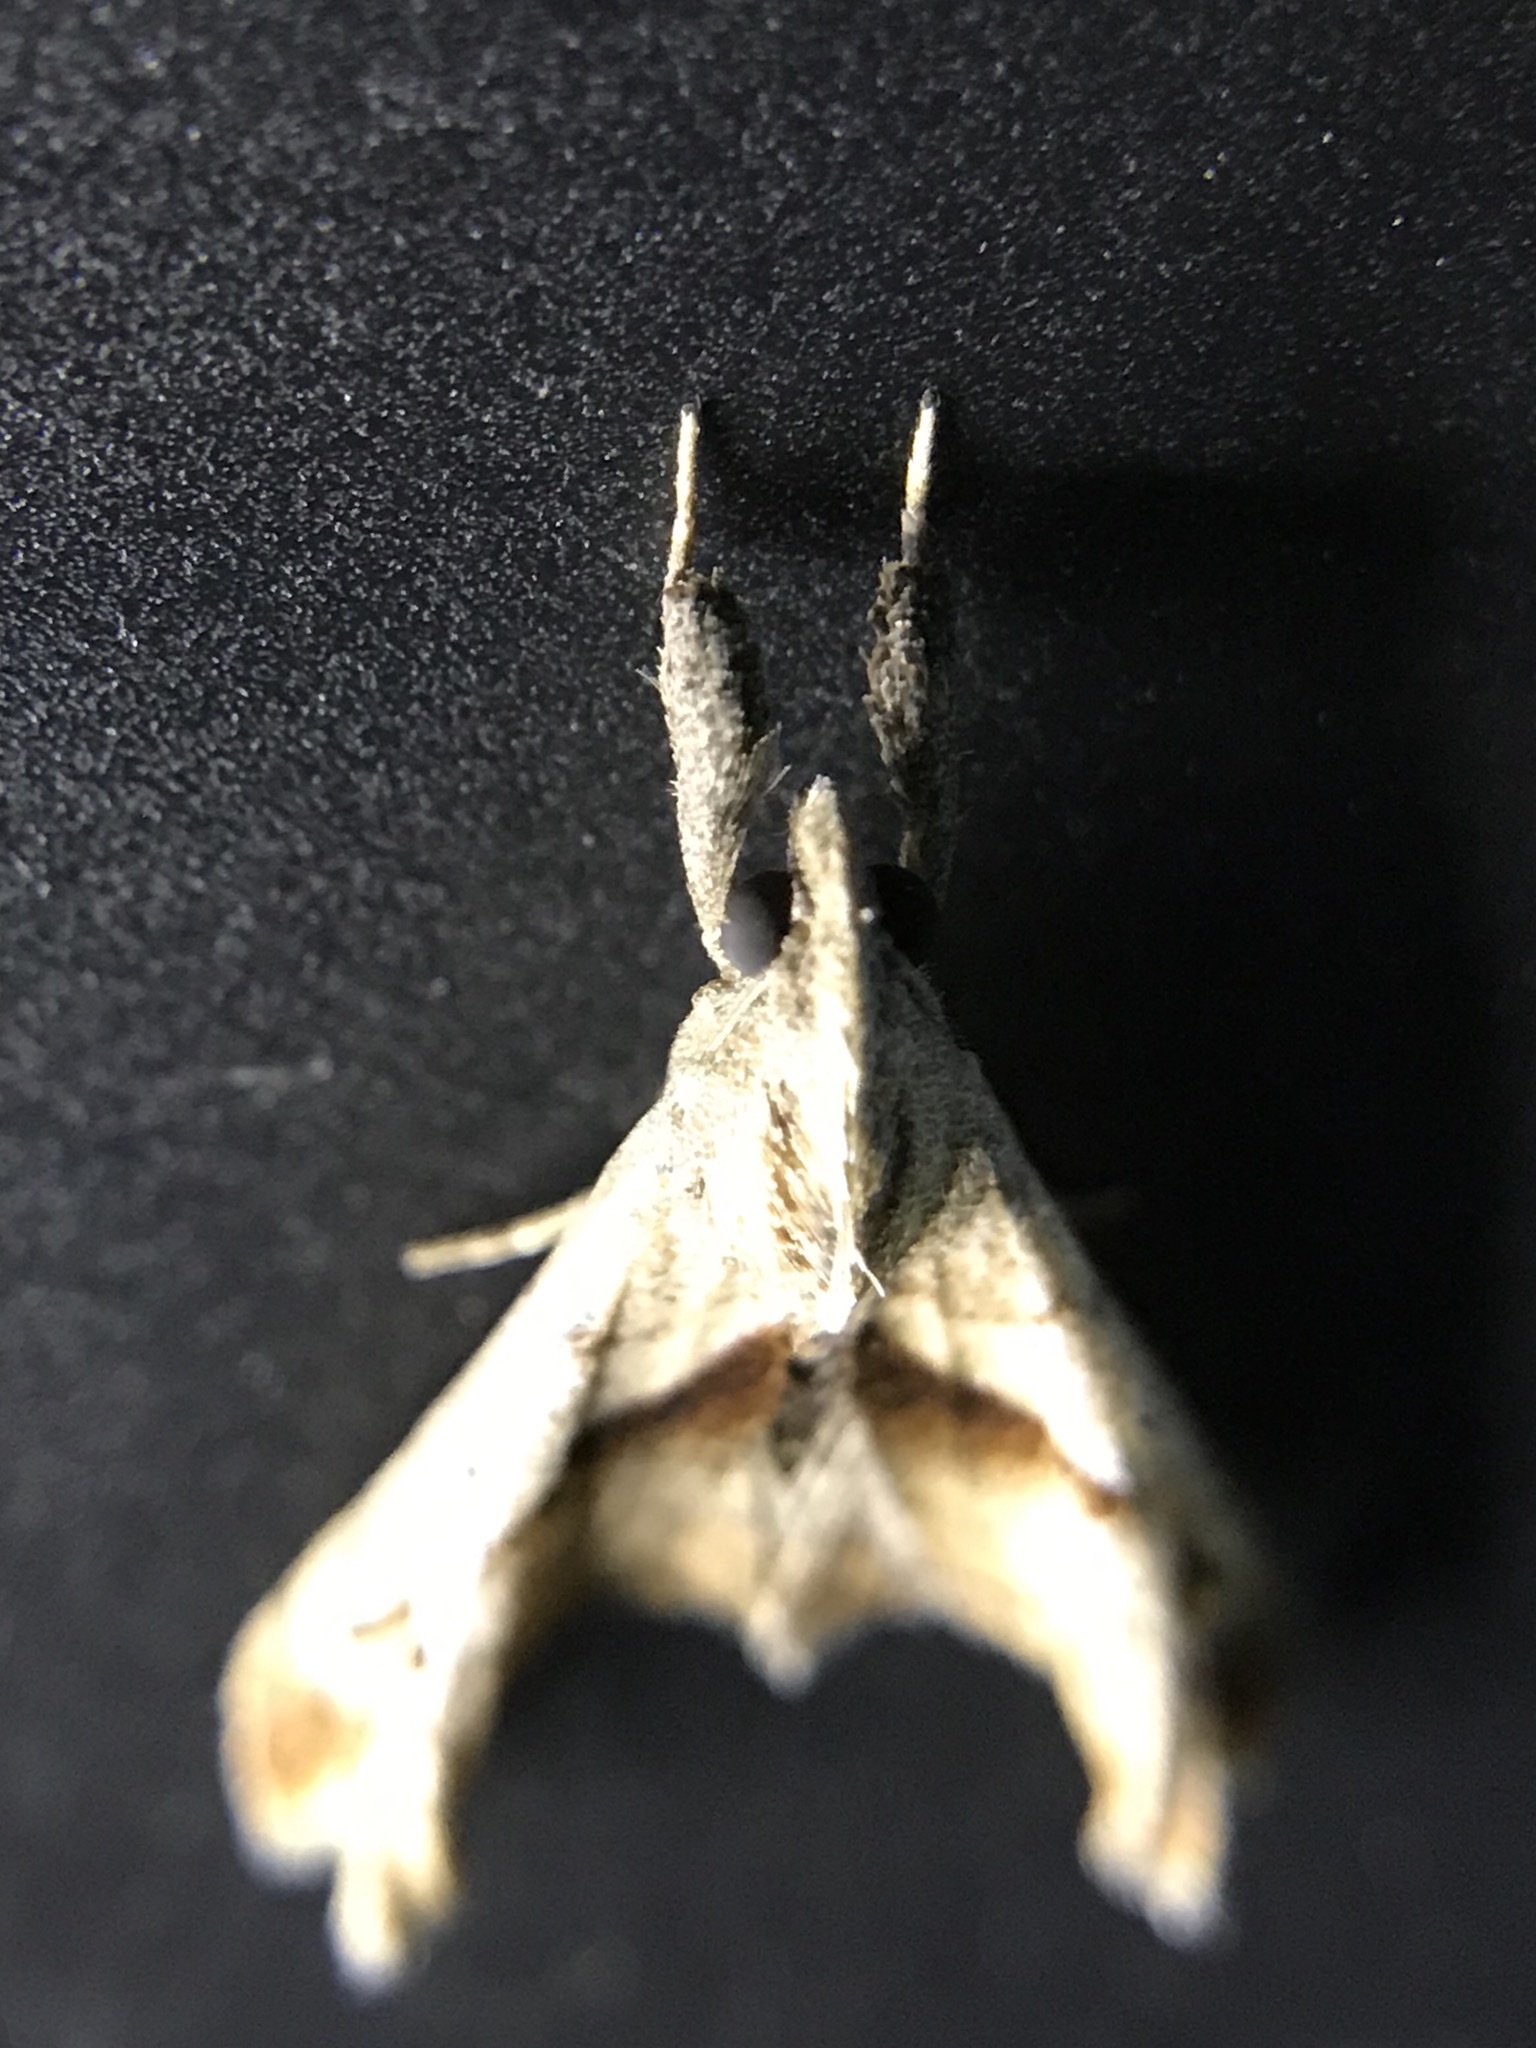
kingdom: Animalia
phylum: Arthropoda
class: Insecta
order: Lepidoptera
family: Erebidae
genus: Palthis
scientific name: Palthis angulalis
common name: Dark-spotted palthis moth
